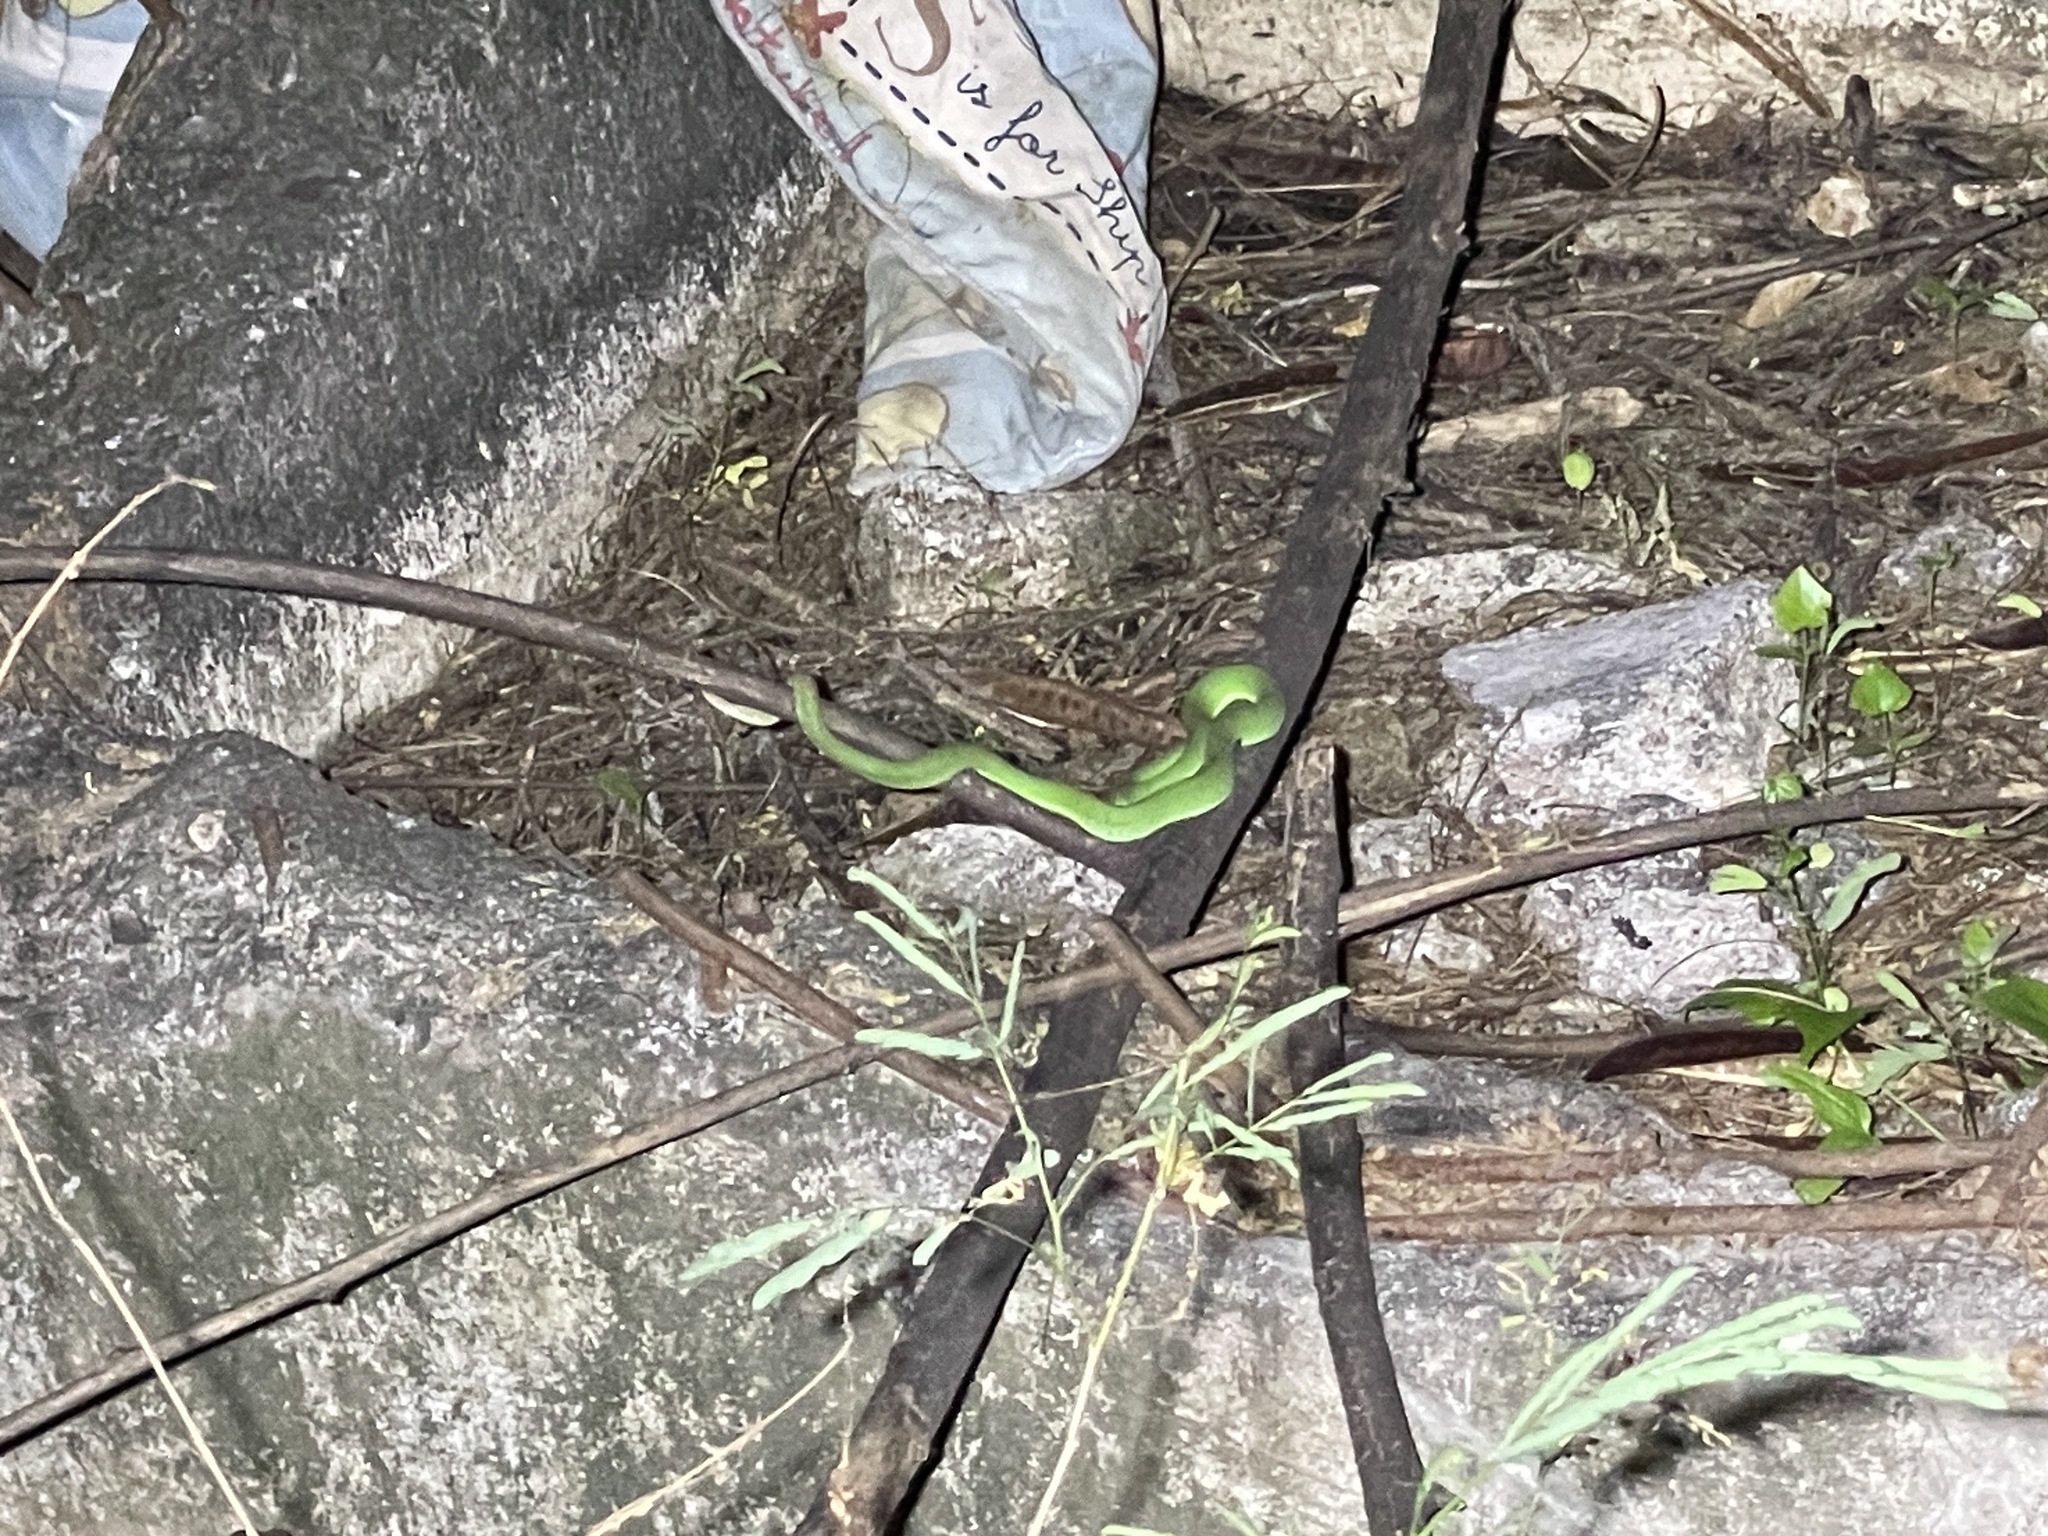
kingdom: Animalia
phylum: Chordata
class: Squamata
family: Viperidae
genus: Trimeresurus
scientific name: Trimeresurus macrops
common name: Kramer's pit viper
